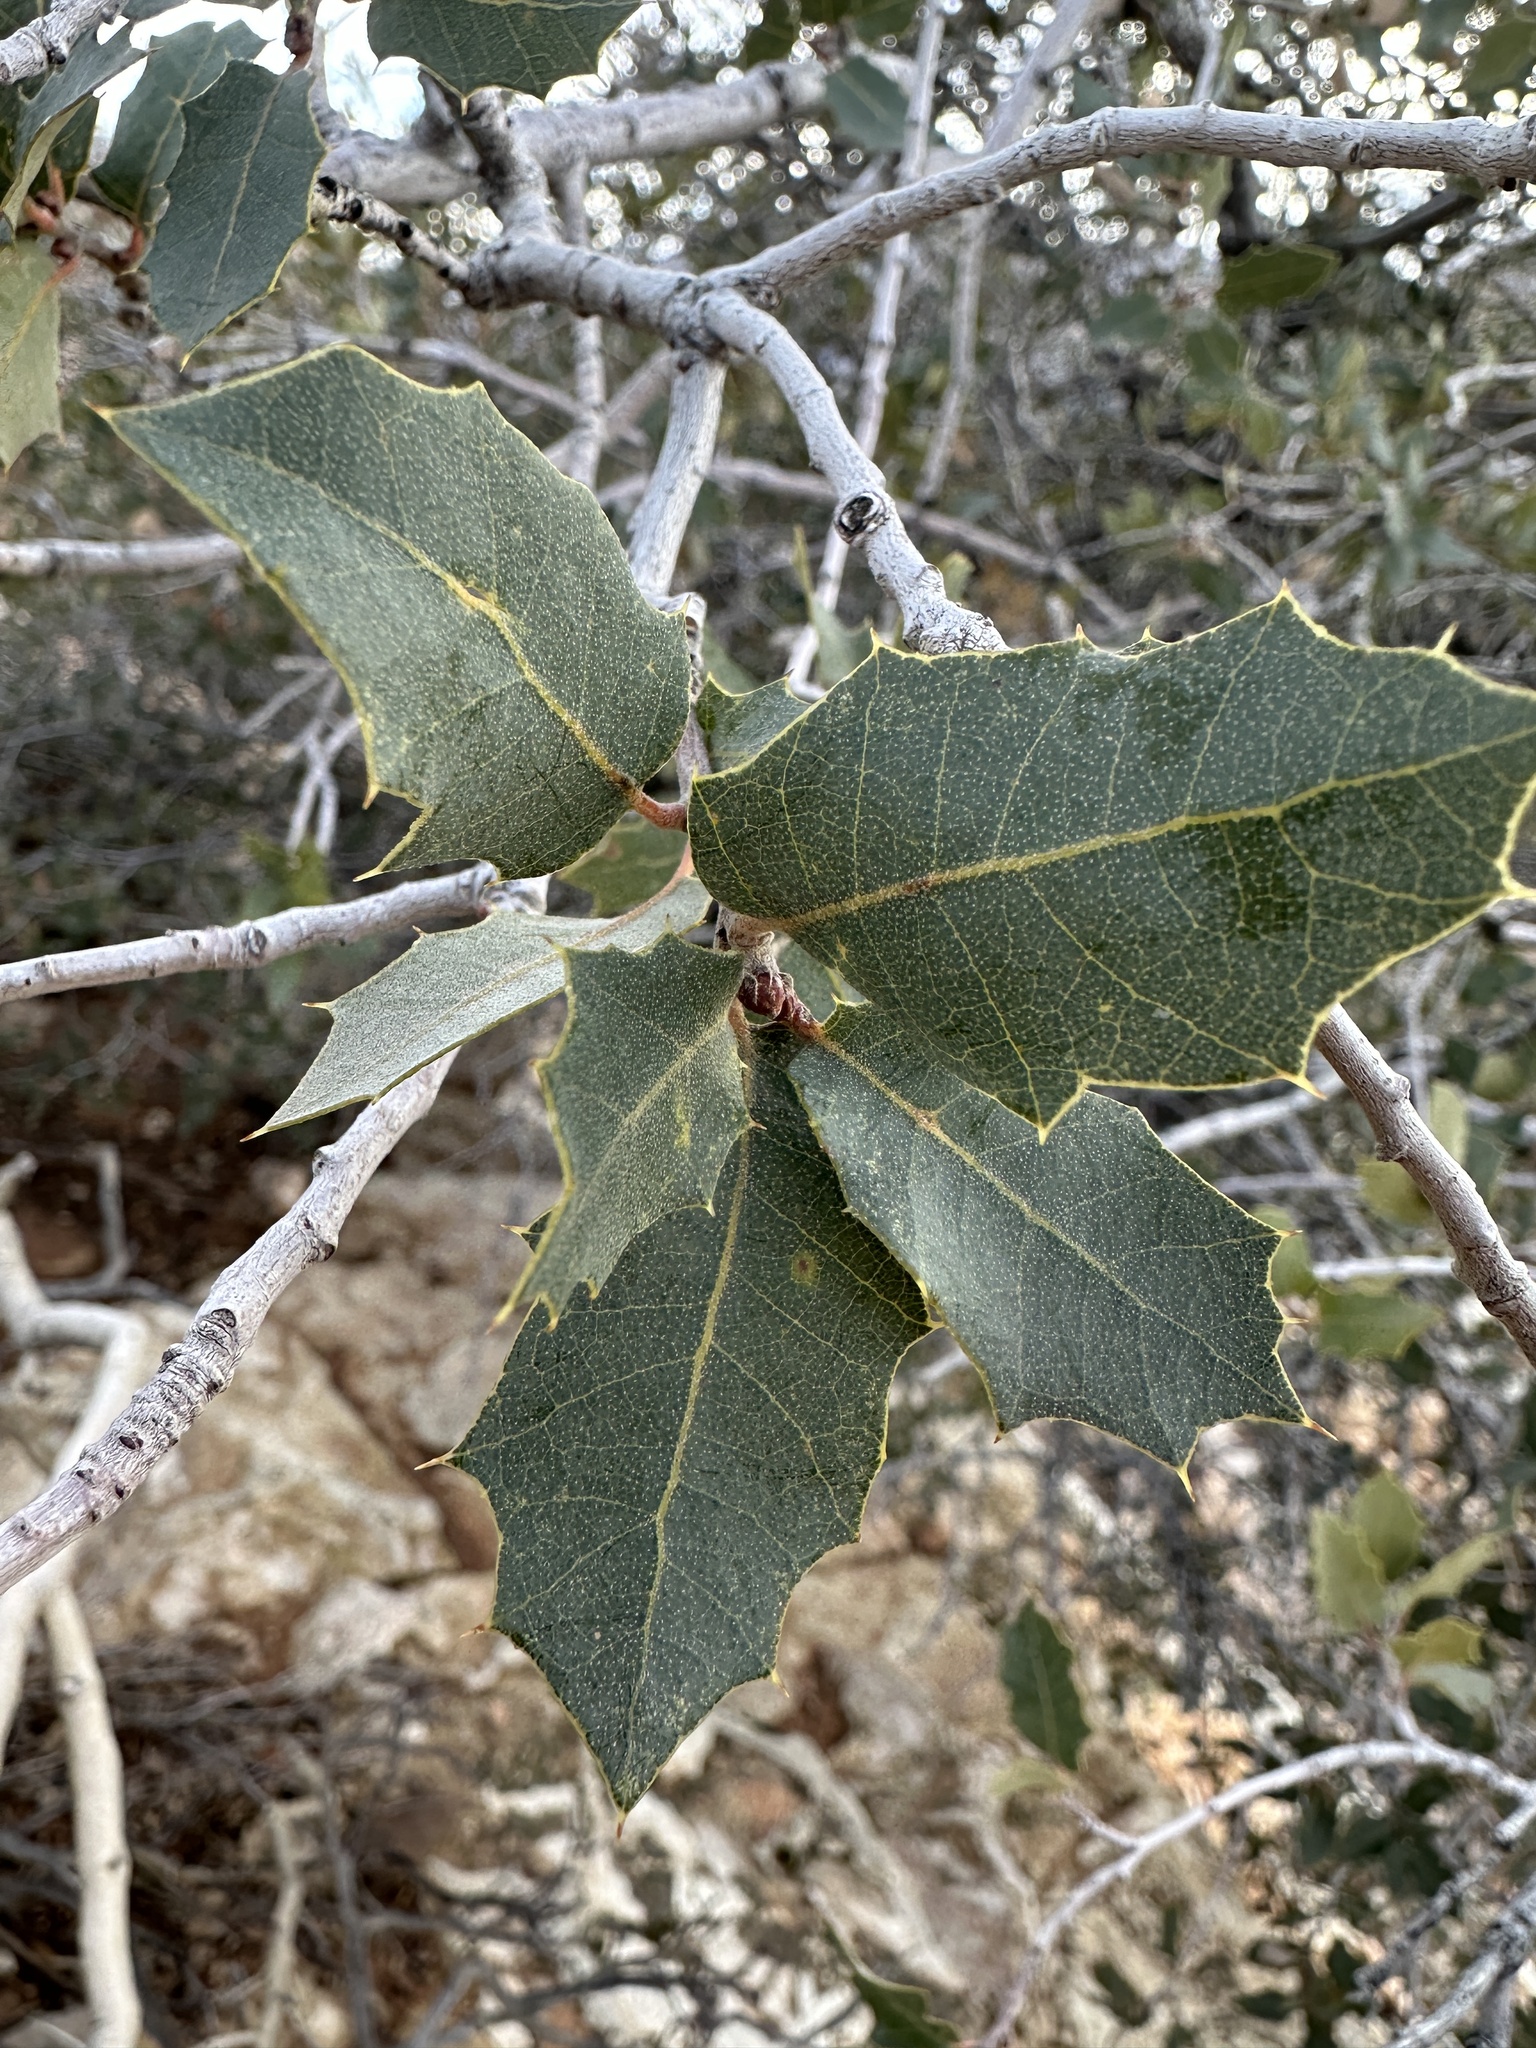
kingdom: Plantae
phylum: Tracheophyta
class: Magnoliopsida
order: Fagales
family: Fagaceae
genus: Quercus
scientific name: Quercus turbinella
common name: Sonoran scrub oak
